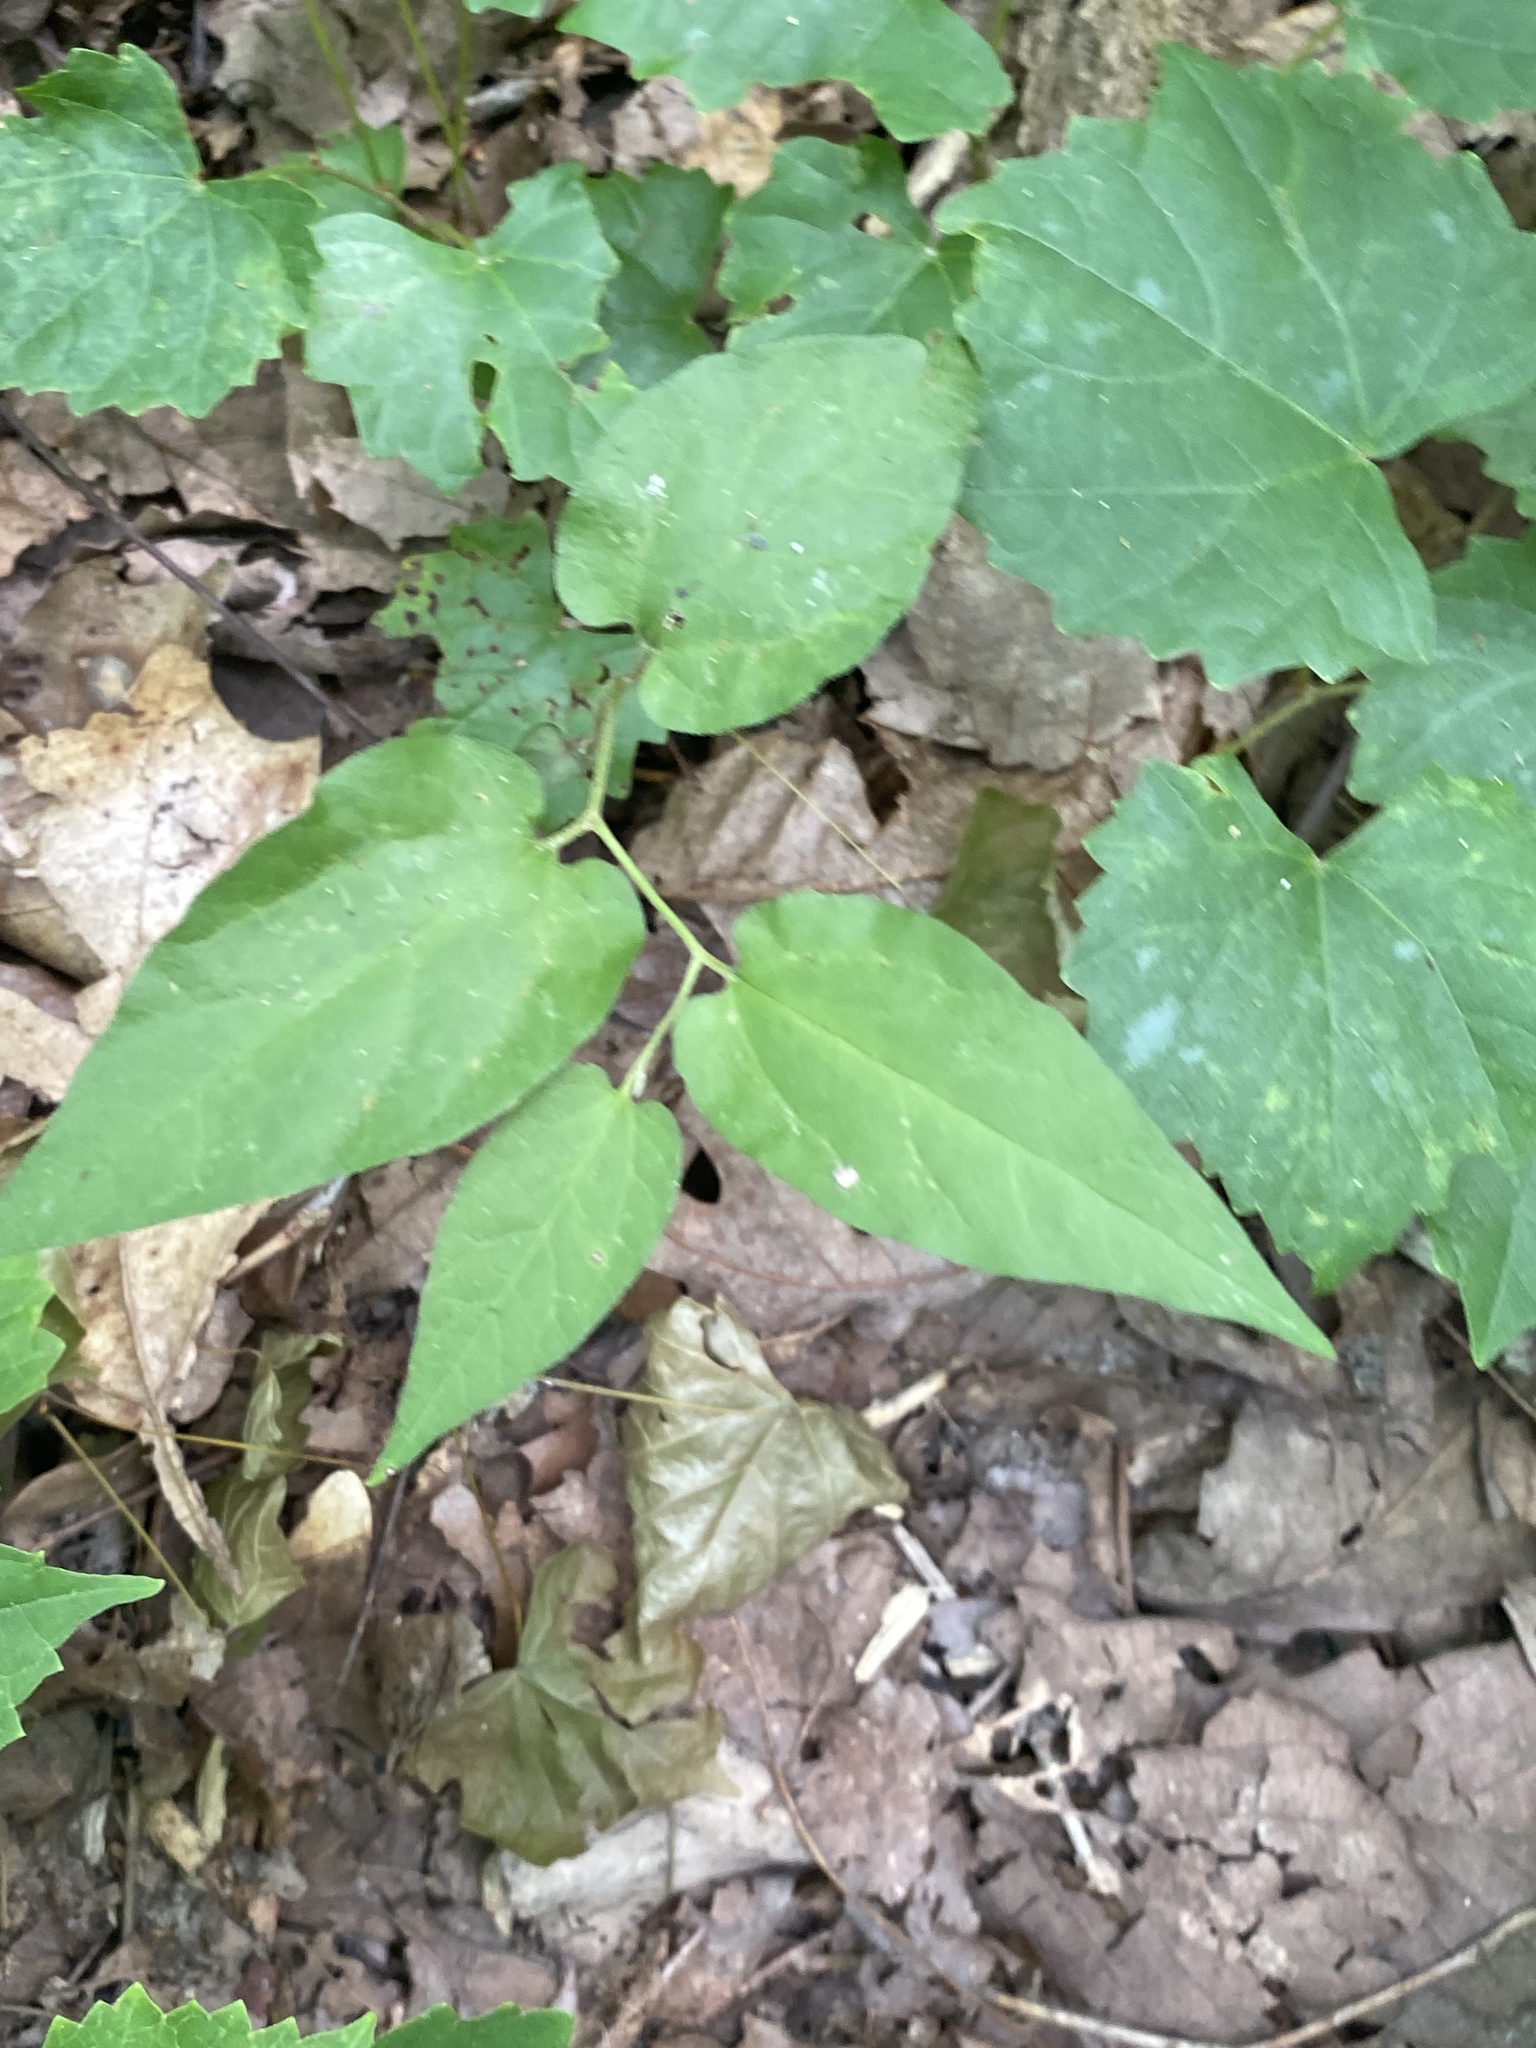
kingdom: Plantae
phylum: Tracheophyta
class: Magnoliopsida
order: Piperales
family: Aristolochiaceae
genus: Endodeca
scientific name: Endodeca serpentaria
